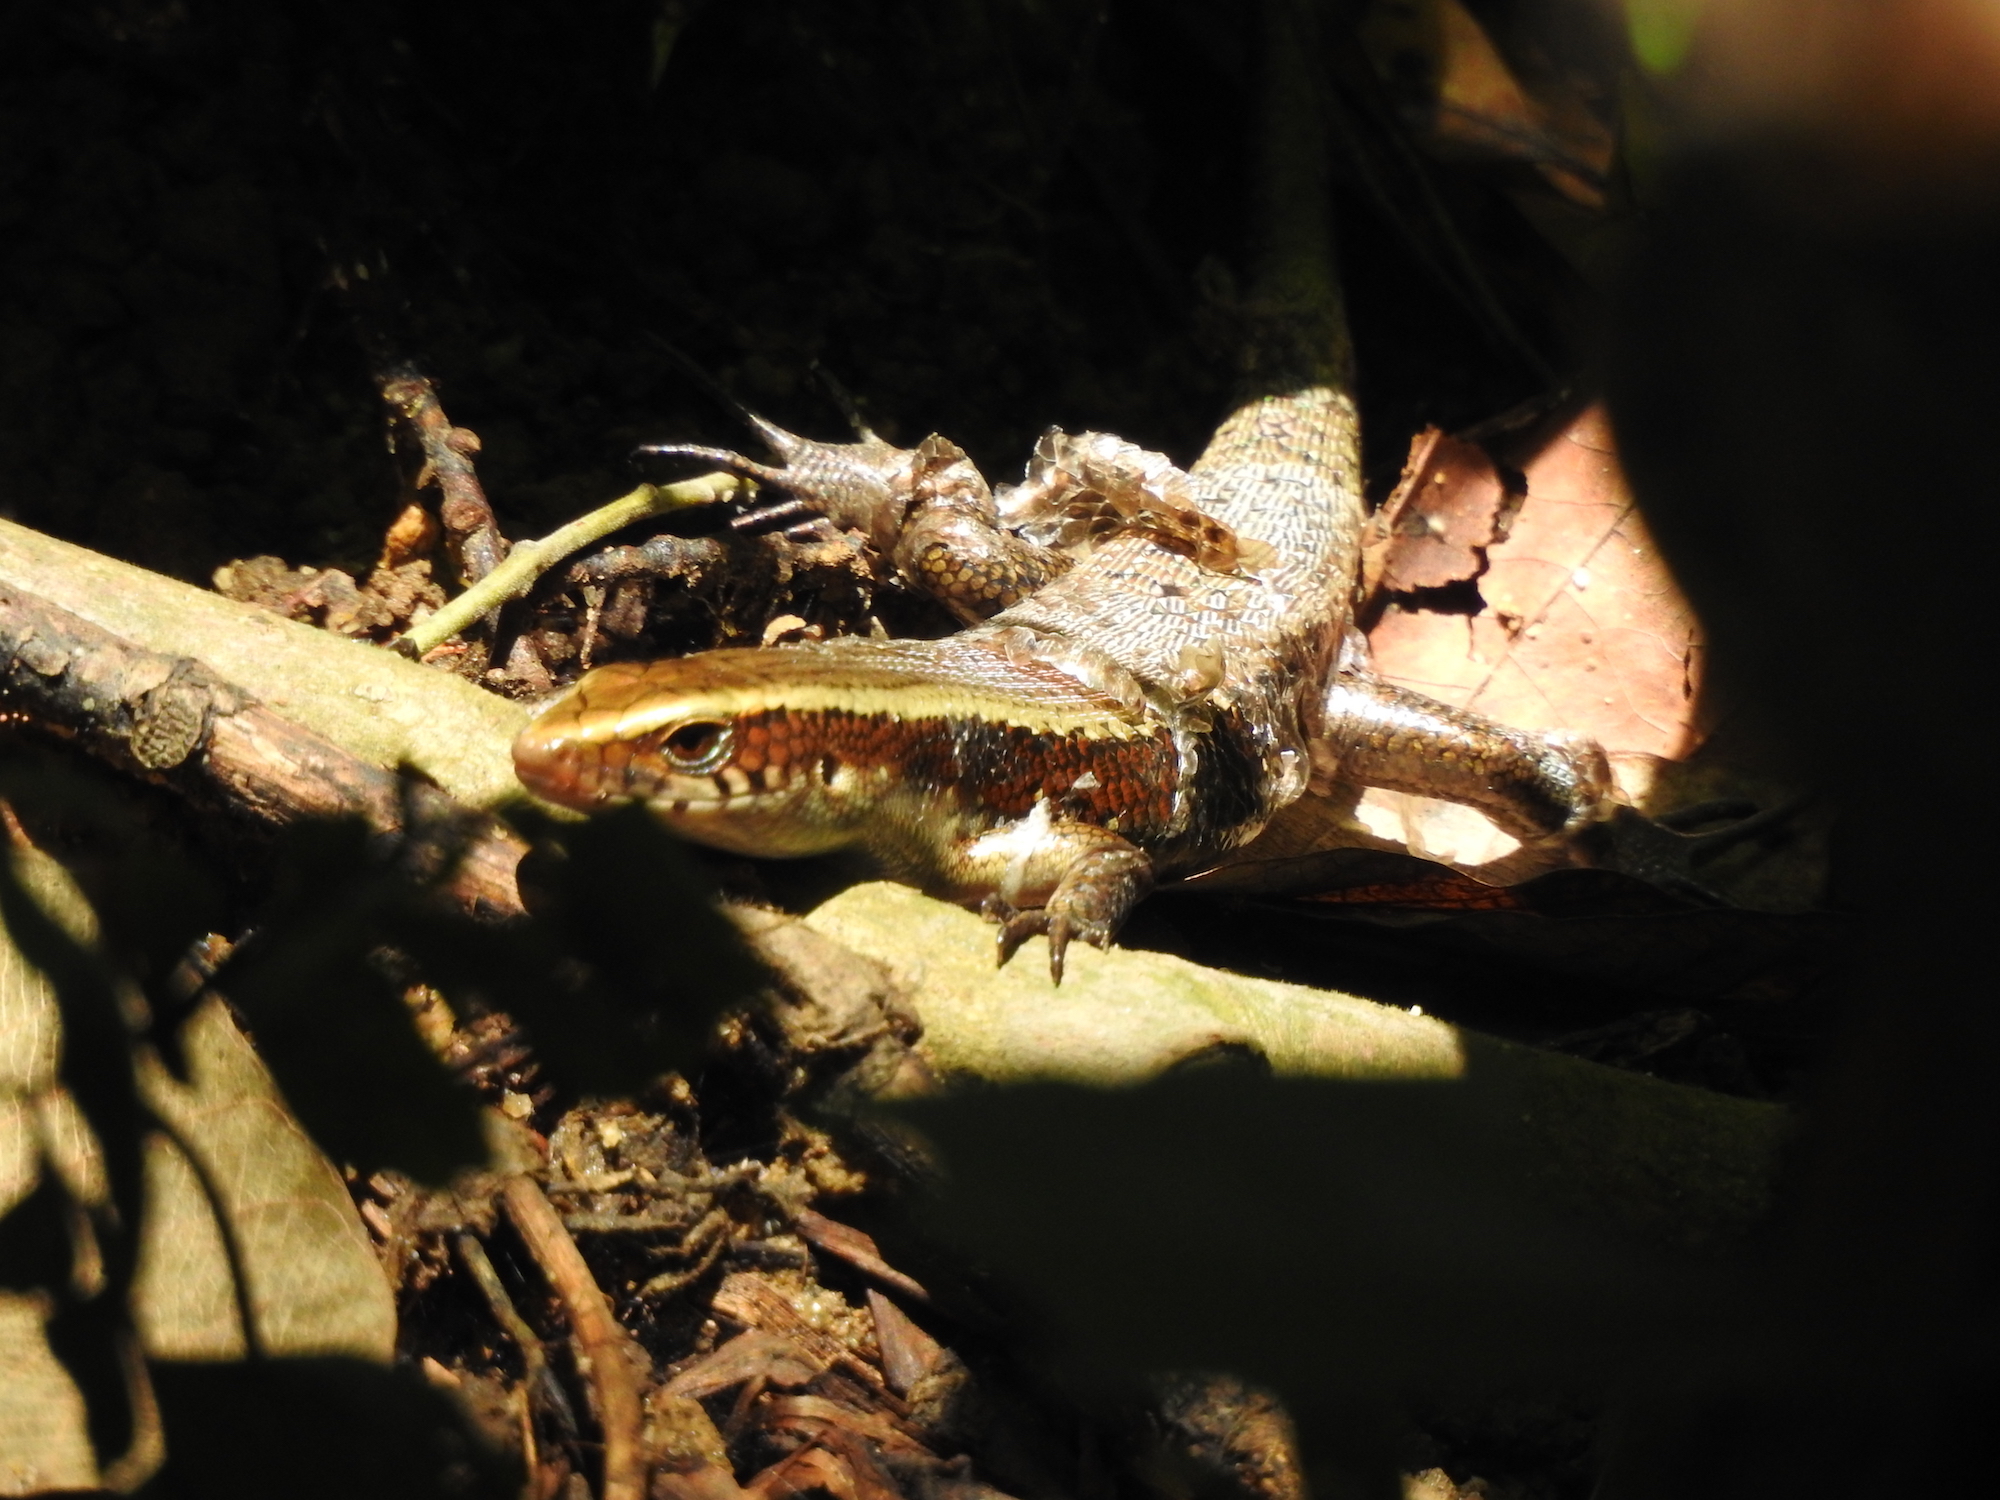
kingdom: Animalia
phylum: Chordata
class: Squamata
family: Scincidae
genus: Eutropis
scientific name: Eutropis multifasciata
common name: Common mabuya
